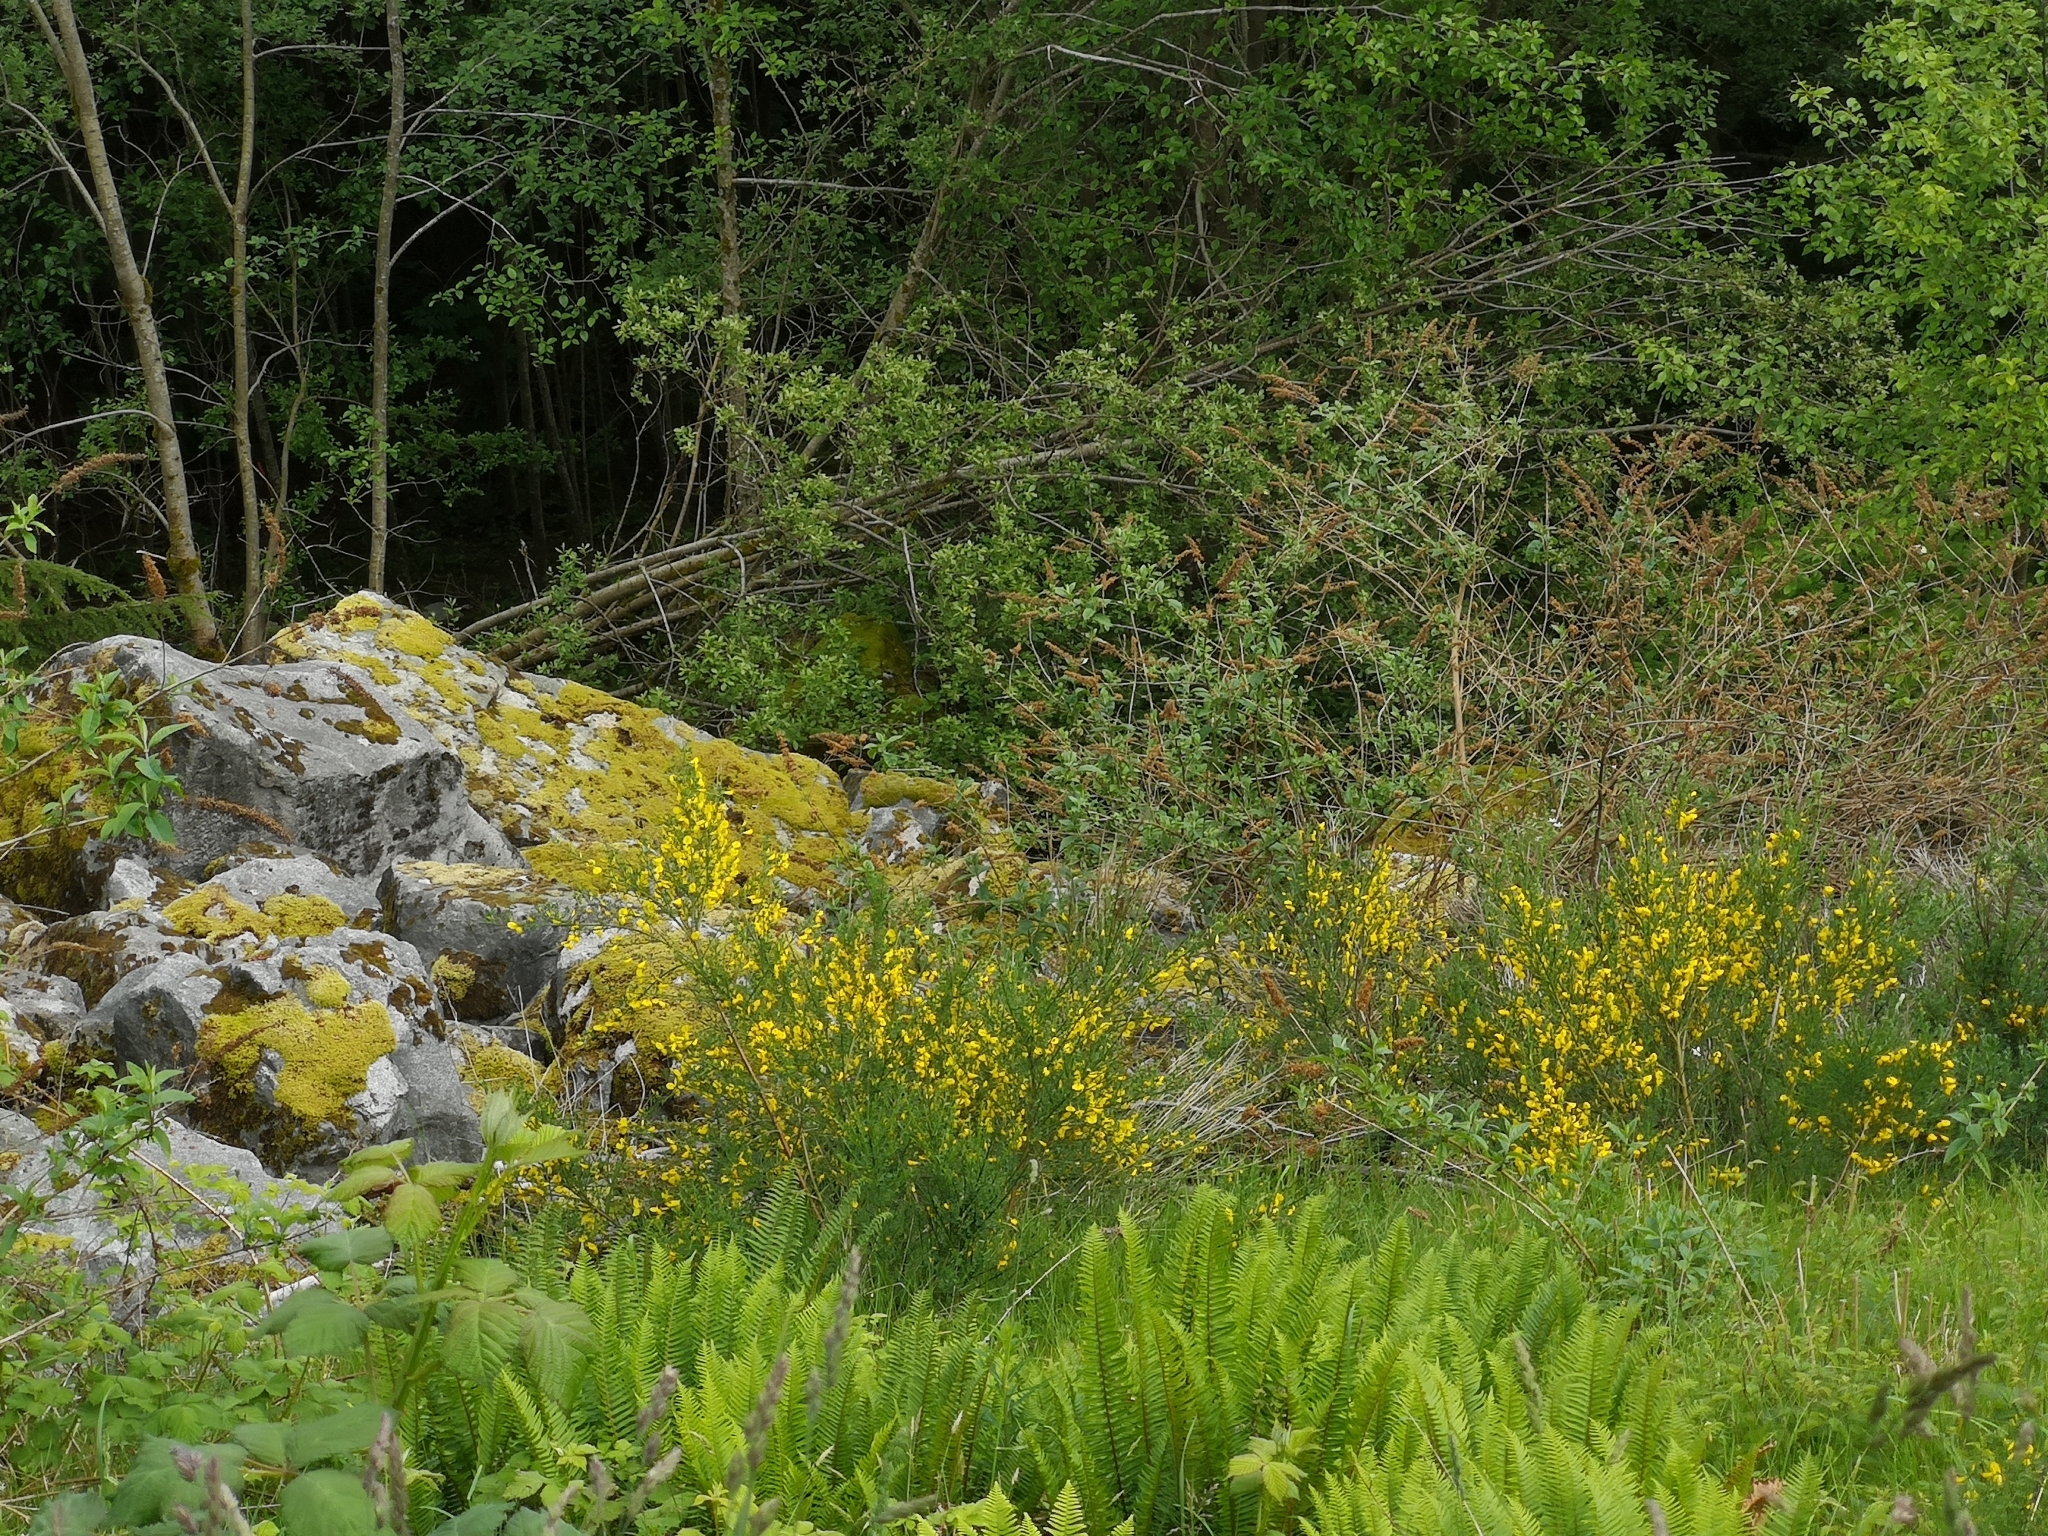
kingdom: Plantae
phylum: Tracheophyta
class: Magnoliopsida
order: Fabales
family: Fabaceae
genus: Cytisus
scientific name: Cytisus scoparius
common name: Scotch broom
